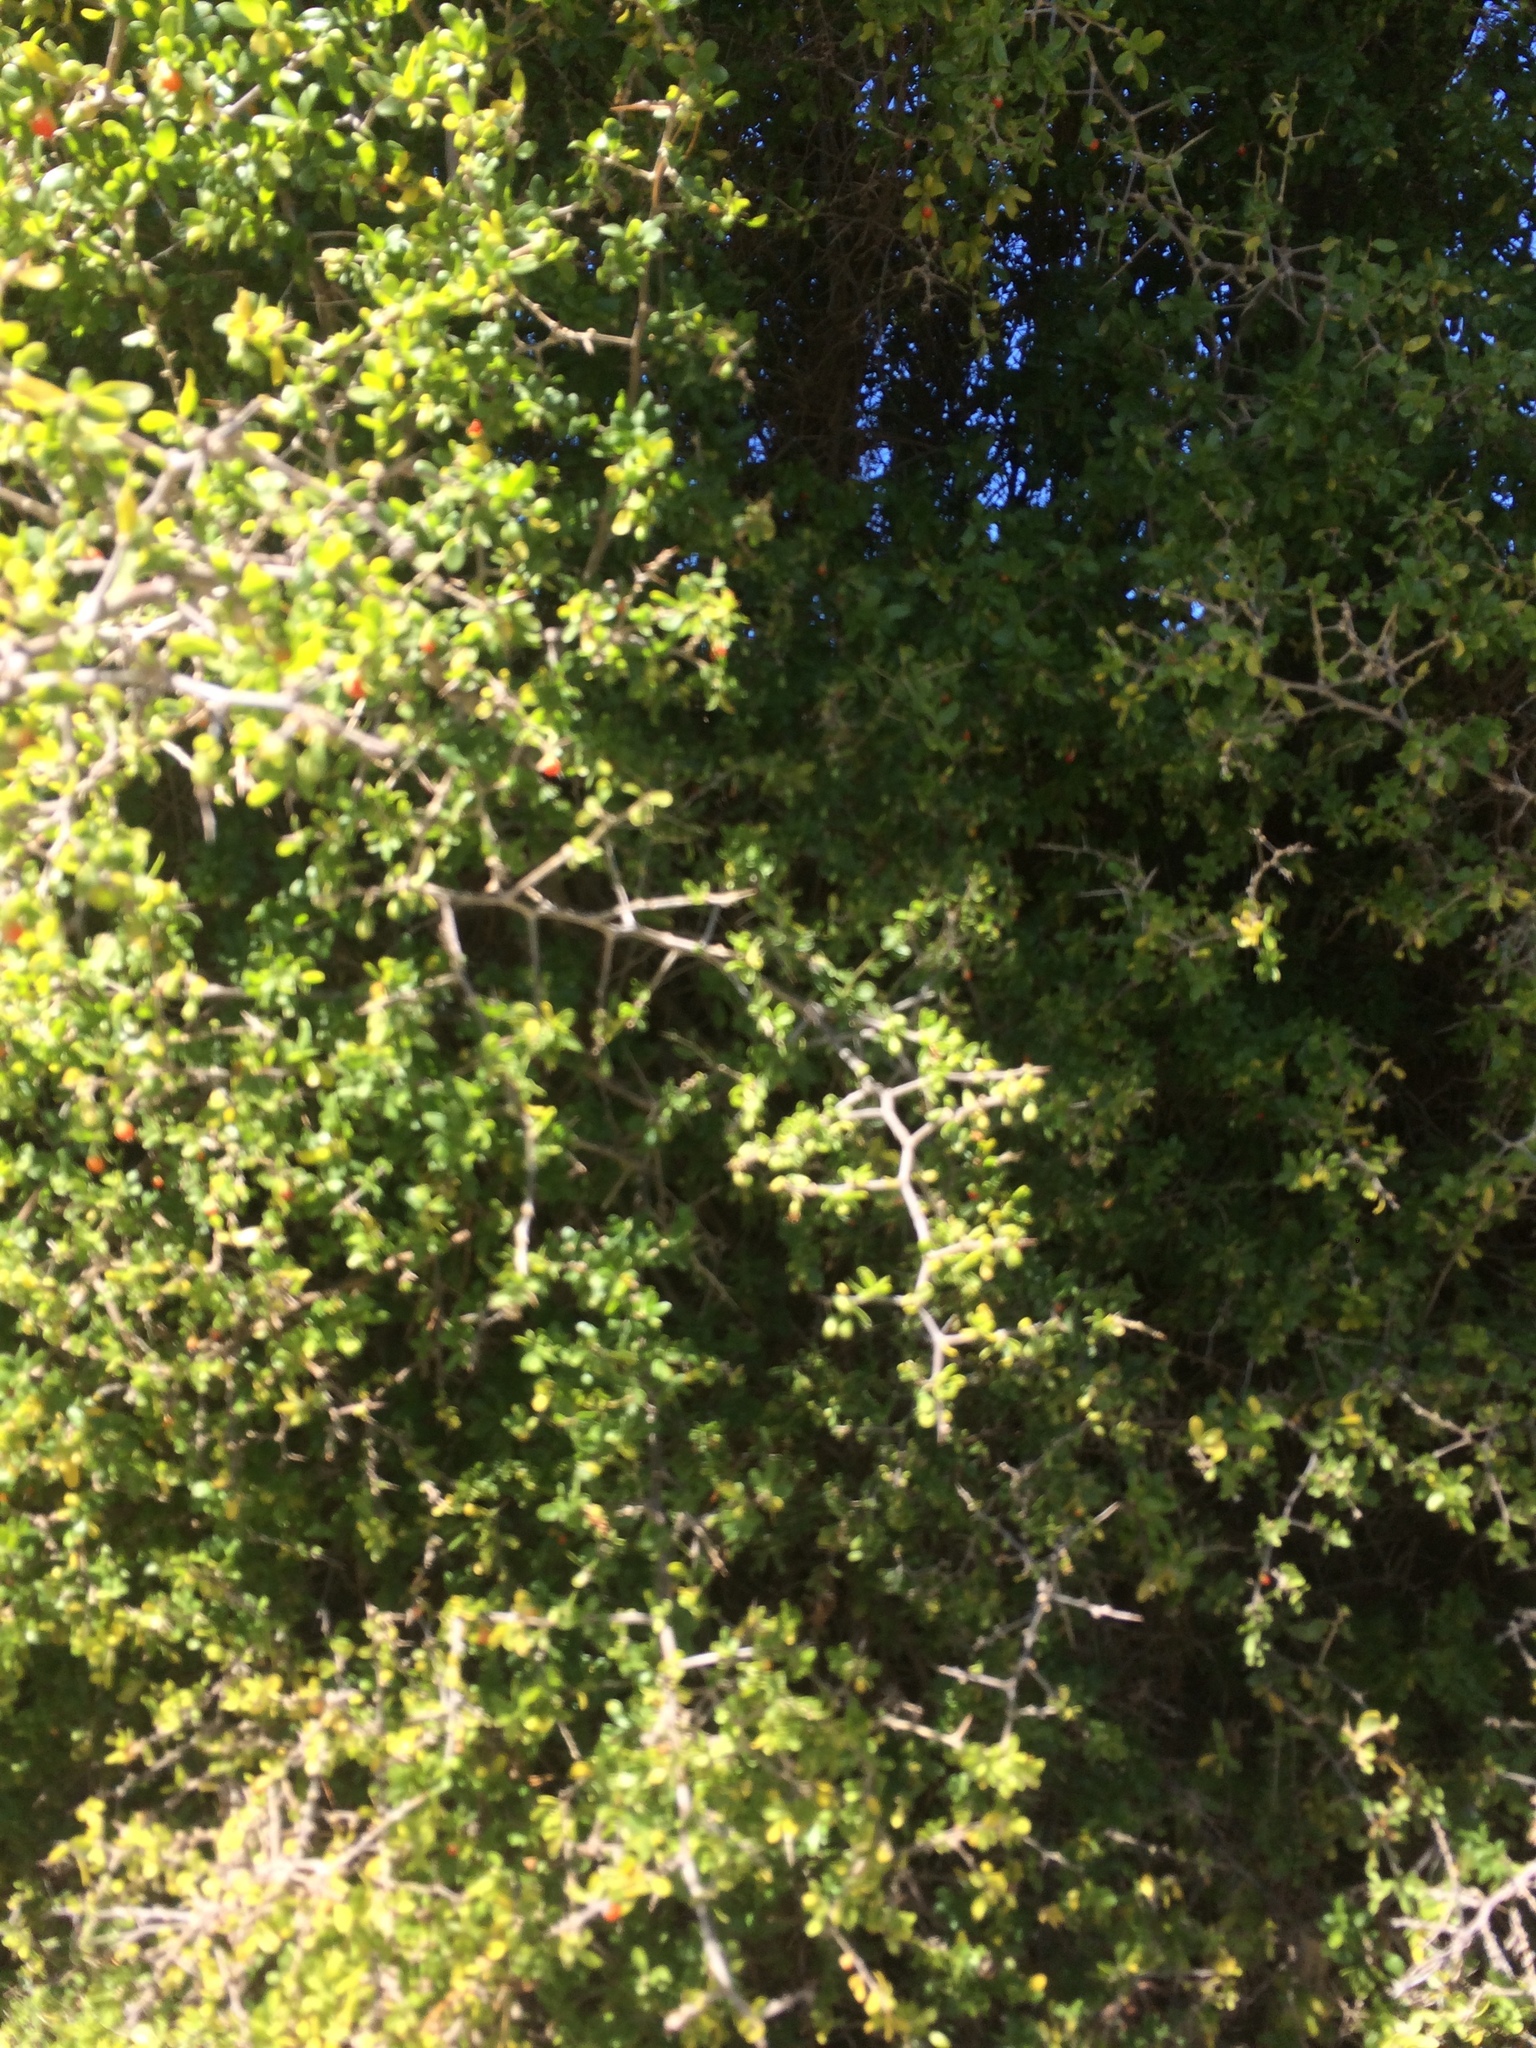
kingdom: Plantae
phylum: Tracheophyta
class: Magnoliopsida
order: Solanales
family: Solanaceae
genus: Lycium
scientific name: Lycium ferocissimum
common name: African boxthorn
